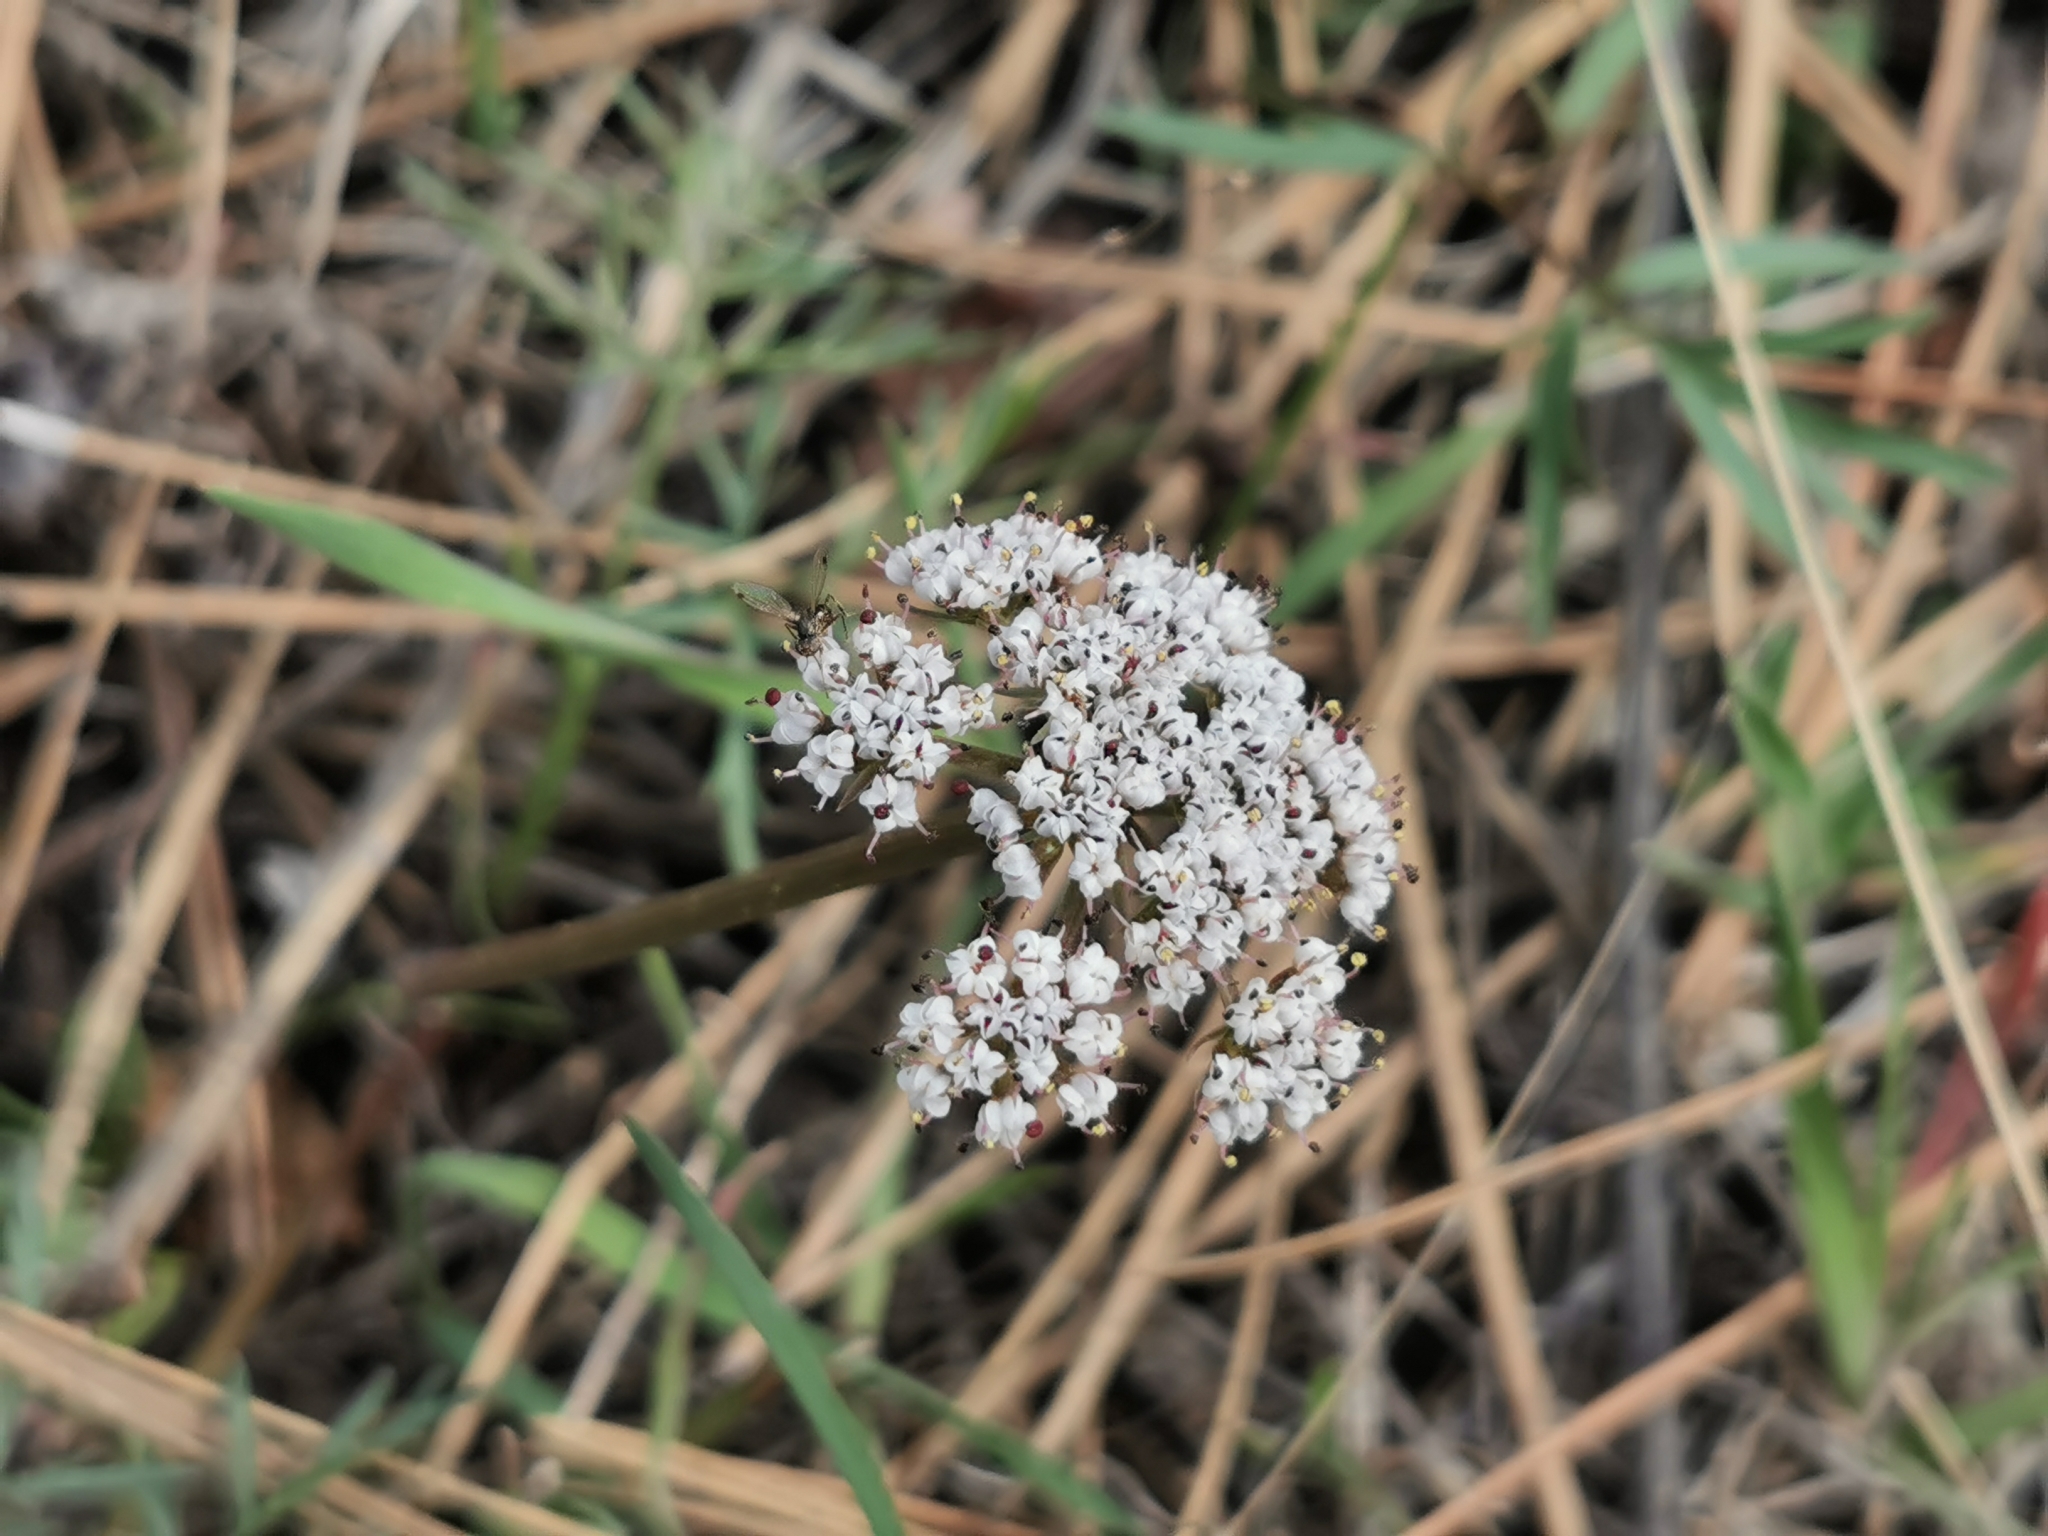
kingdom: Plantae
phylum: Tracheophyta
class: Magnoliopsida
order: Apiales
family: Apiaceae
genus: Lomatium
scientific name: Lomatium geyeri
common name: Geyer's biscuitroot
